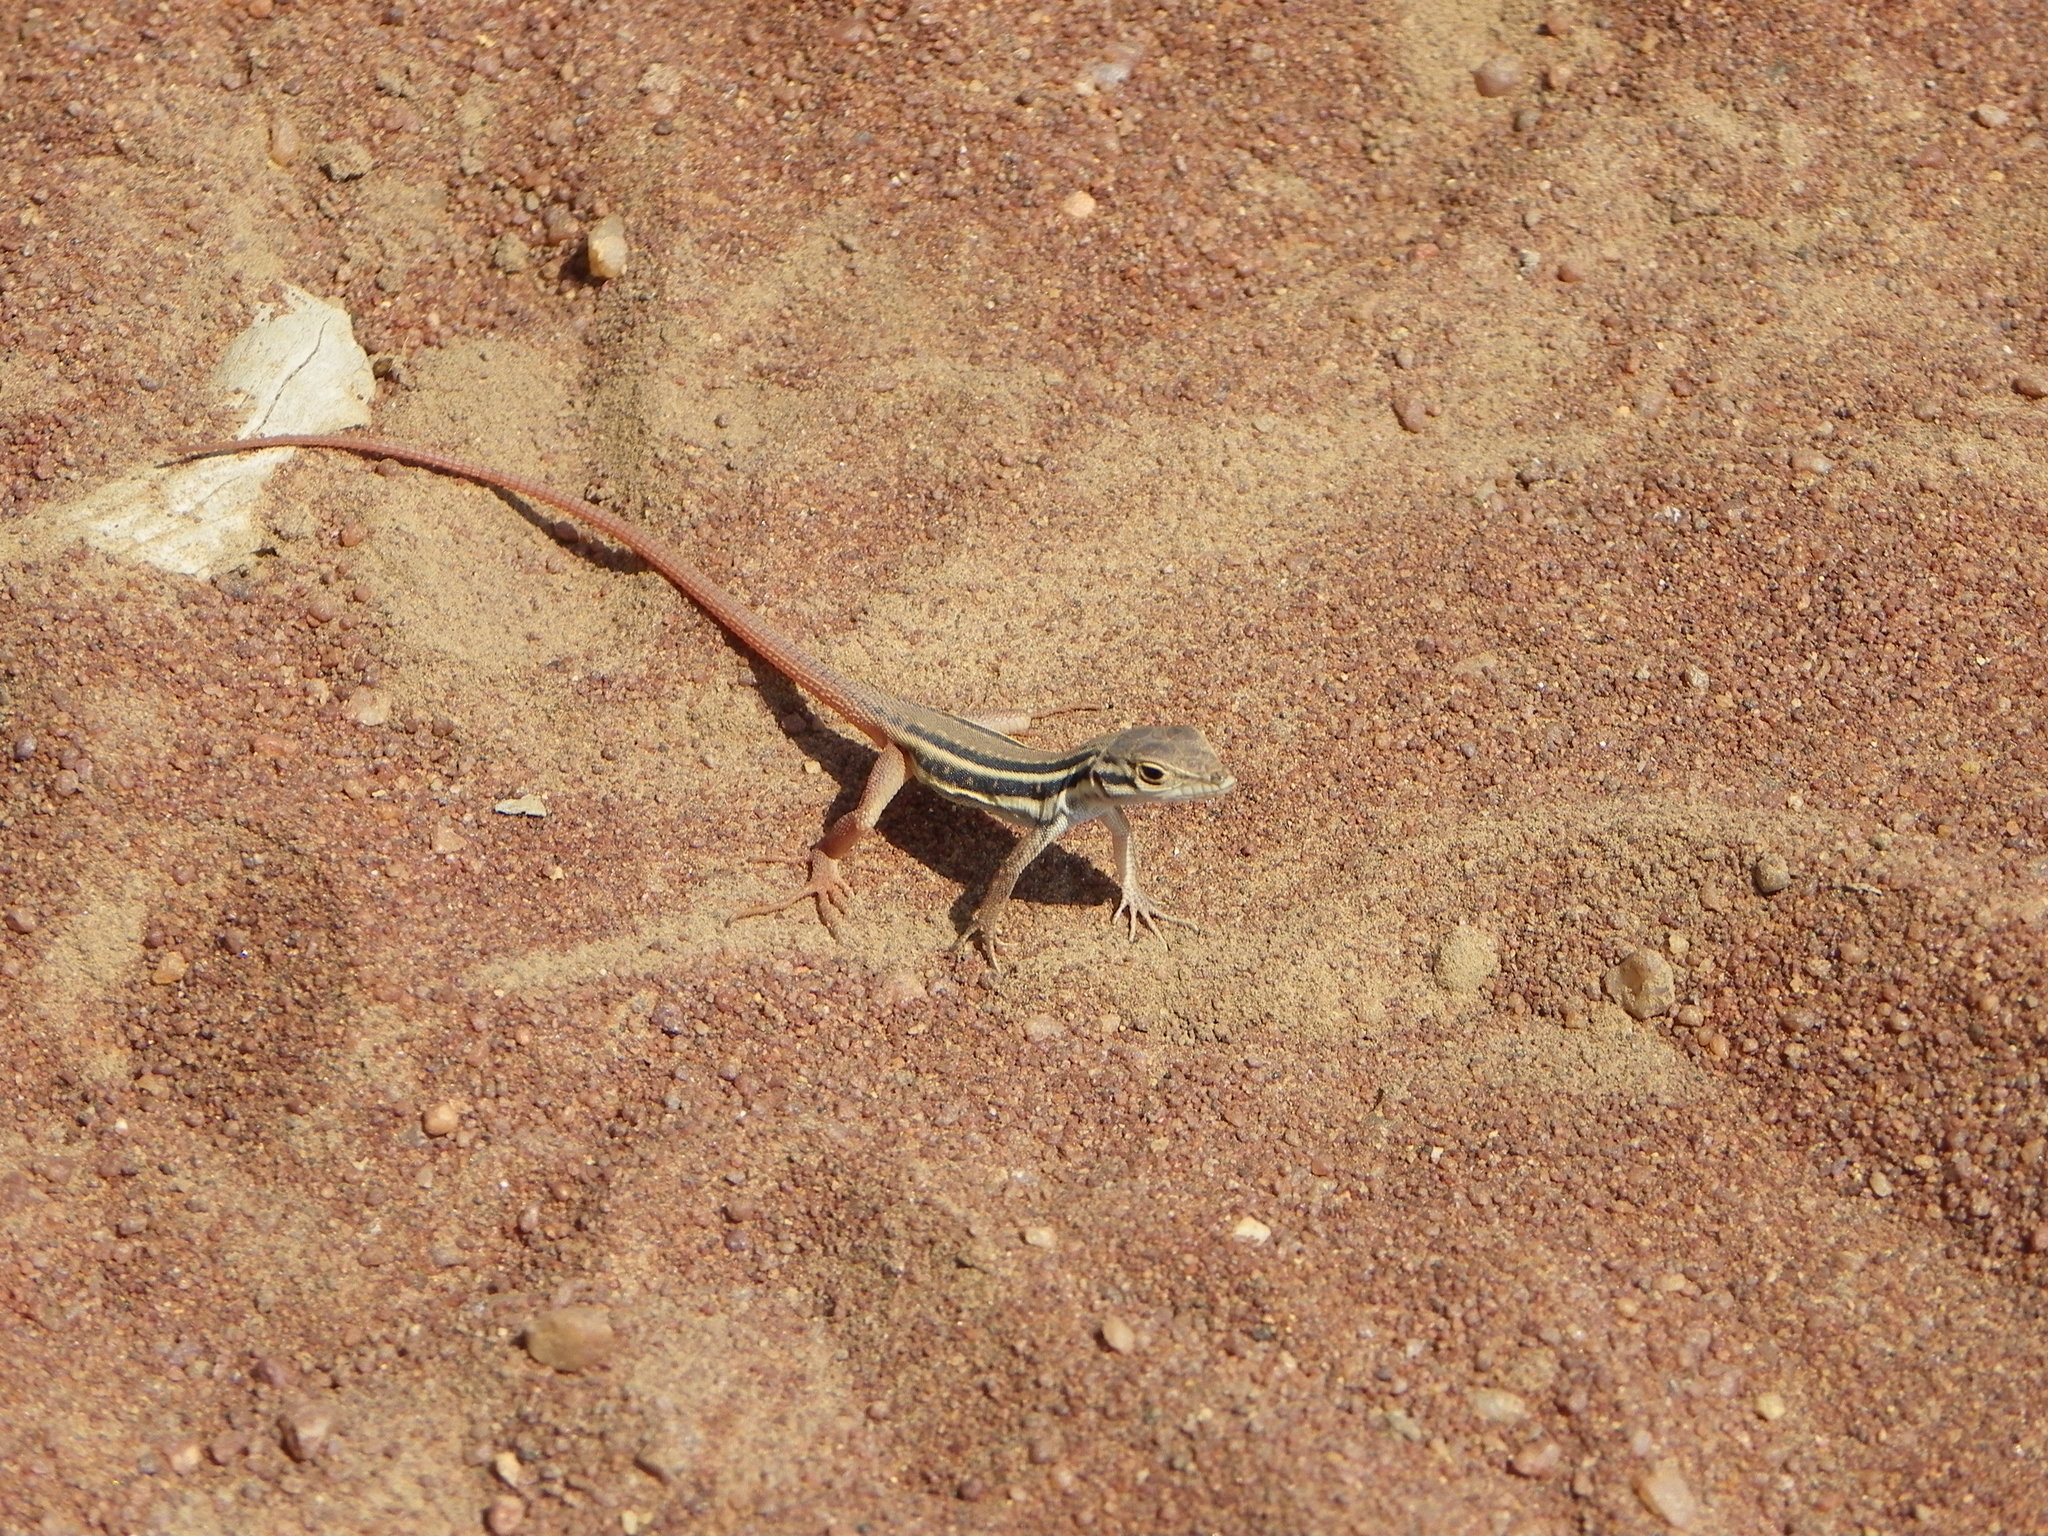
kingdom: Animalia
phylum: Chordata
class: Squamata
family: Lacertidae
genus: Pedioplanis
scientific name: Pedioplanis lineoocellata
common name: Spotted sand lizard
